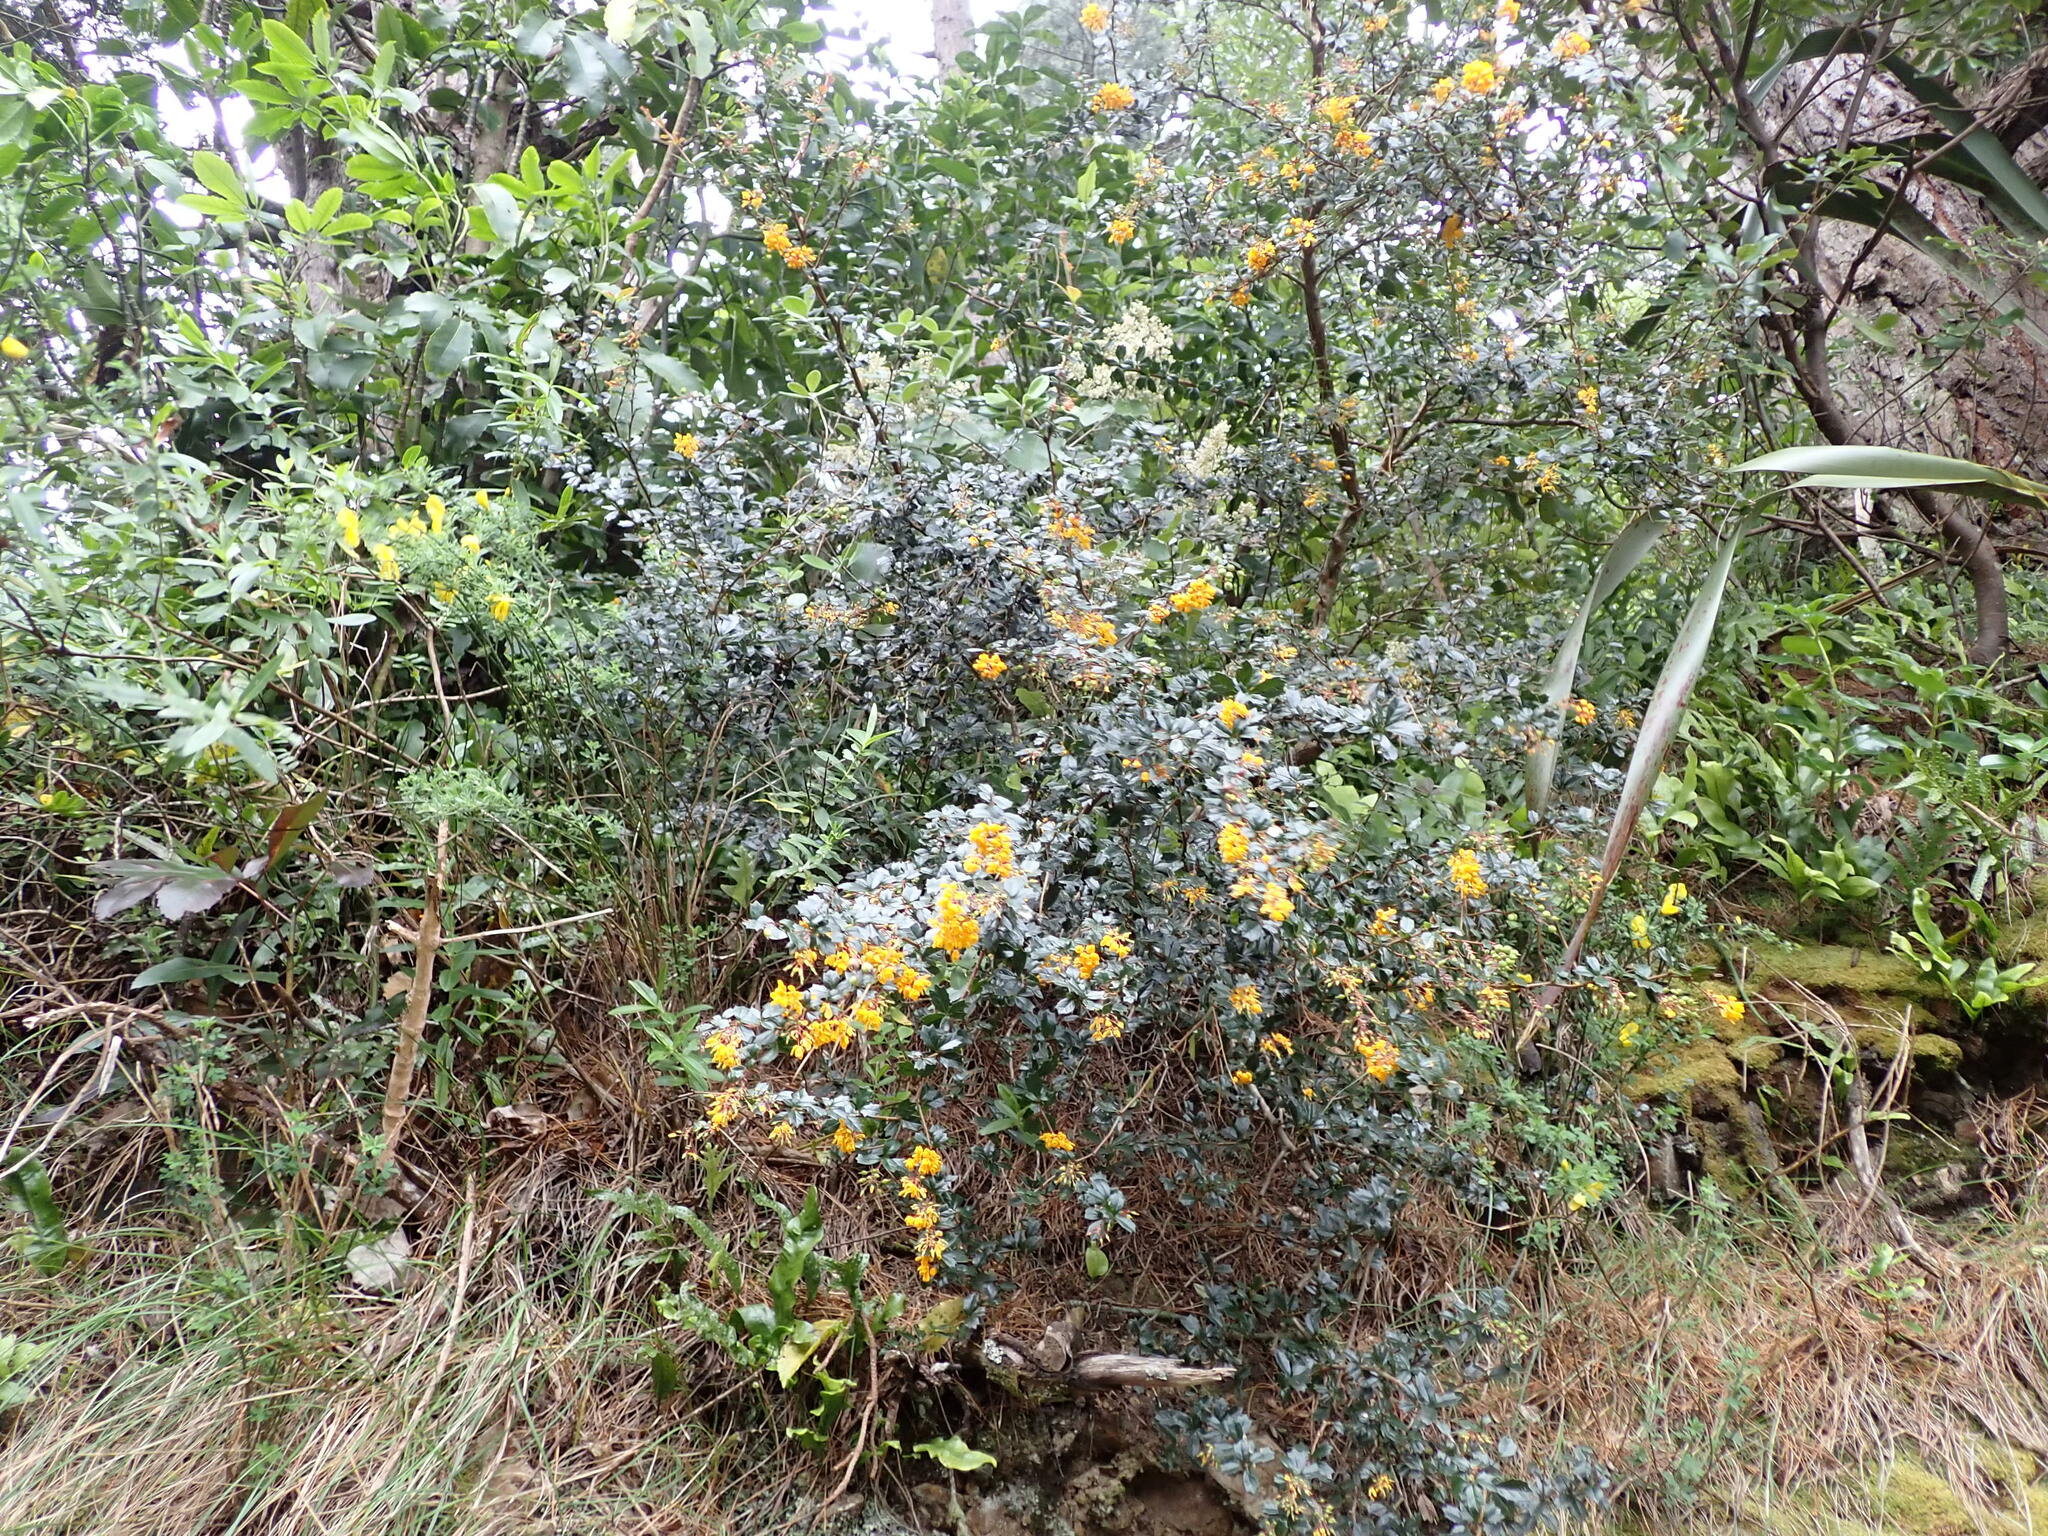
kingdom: Plantae
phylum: Tracheophyta
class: Magnoliopsida
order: Ranunculales
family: Berberidaceae
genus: Berberis
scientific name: Berberis darwinii
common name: Darwin's barberry
